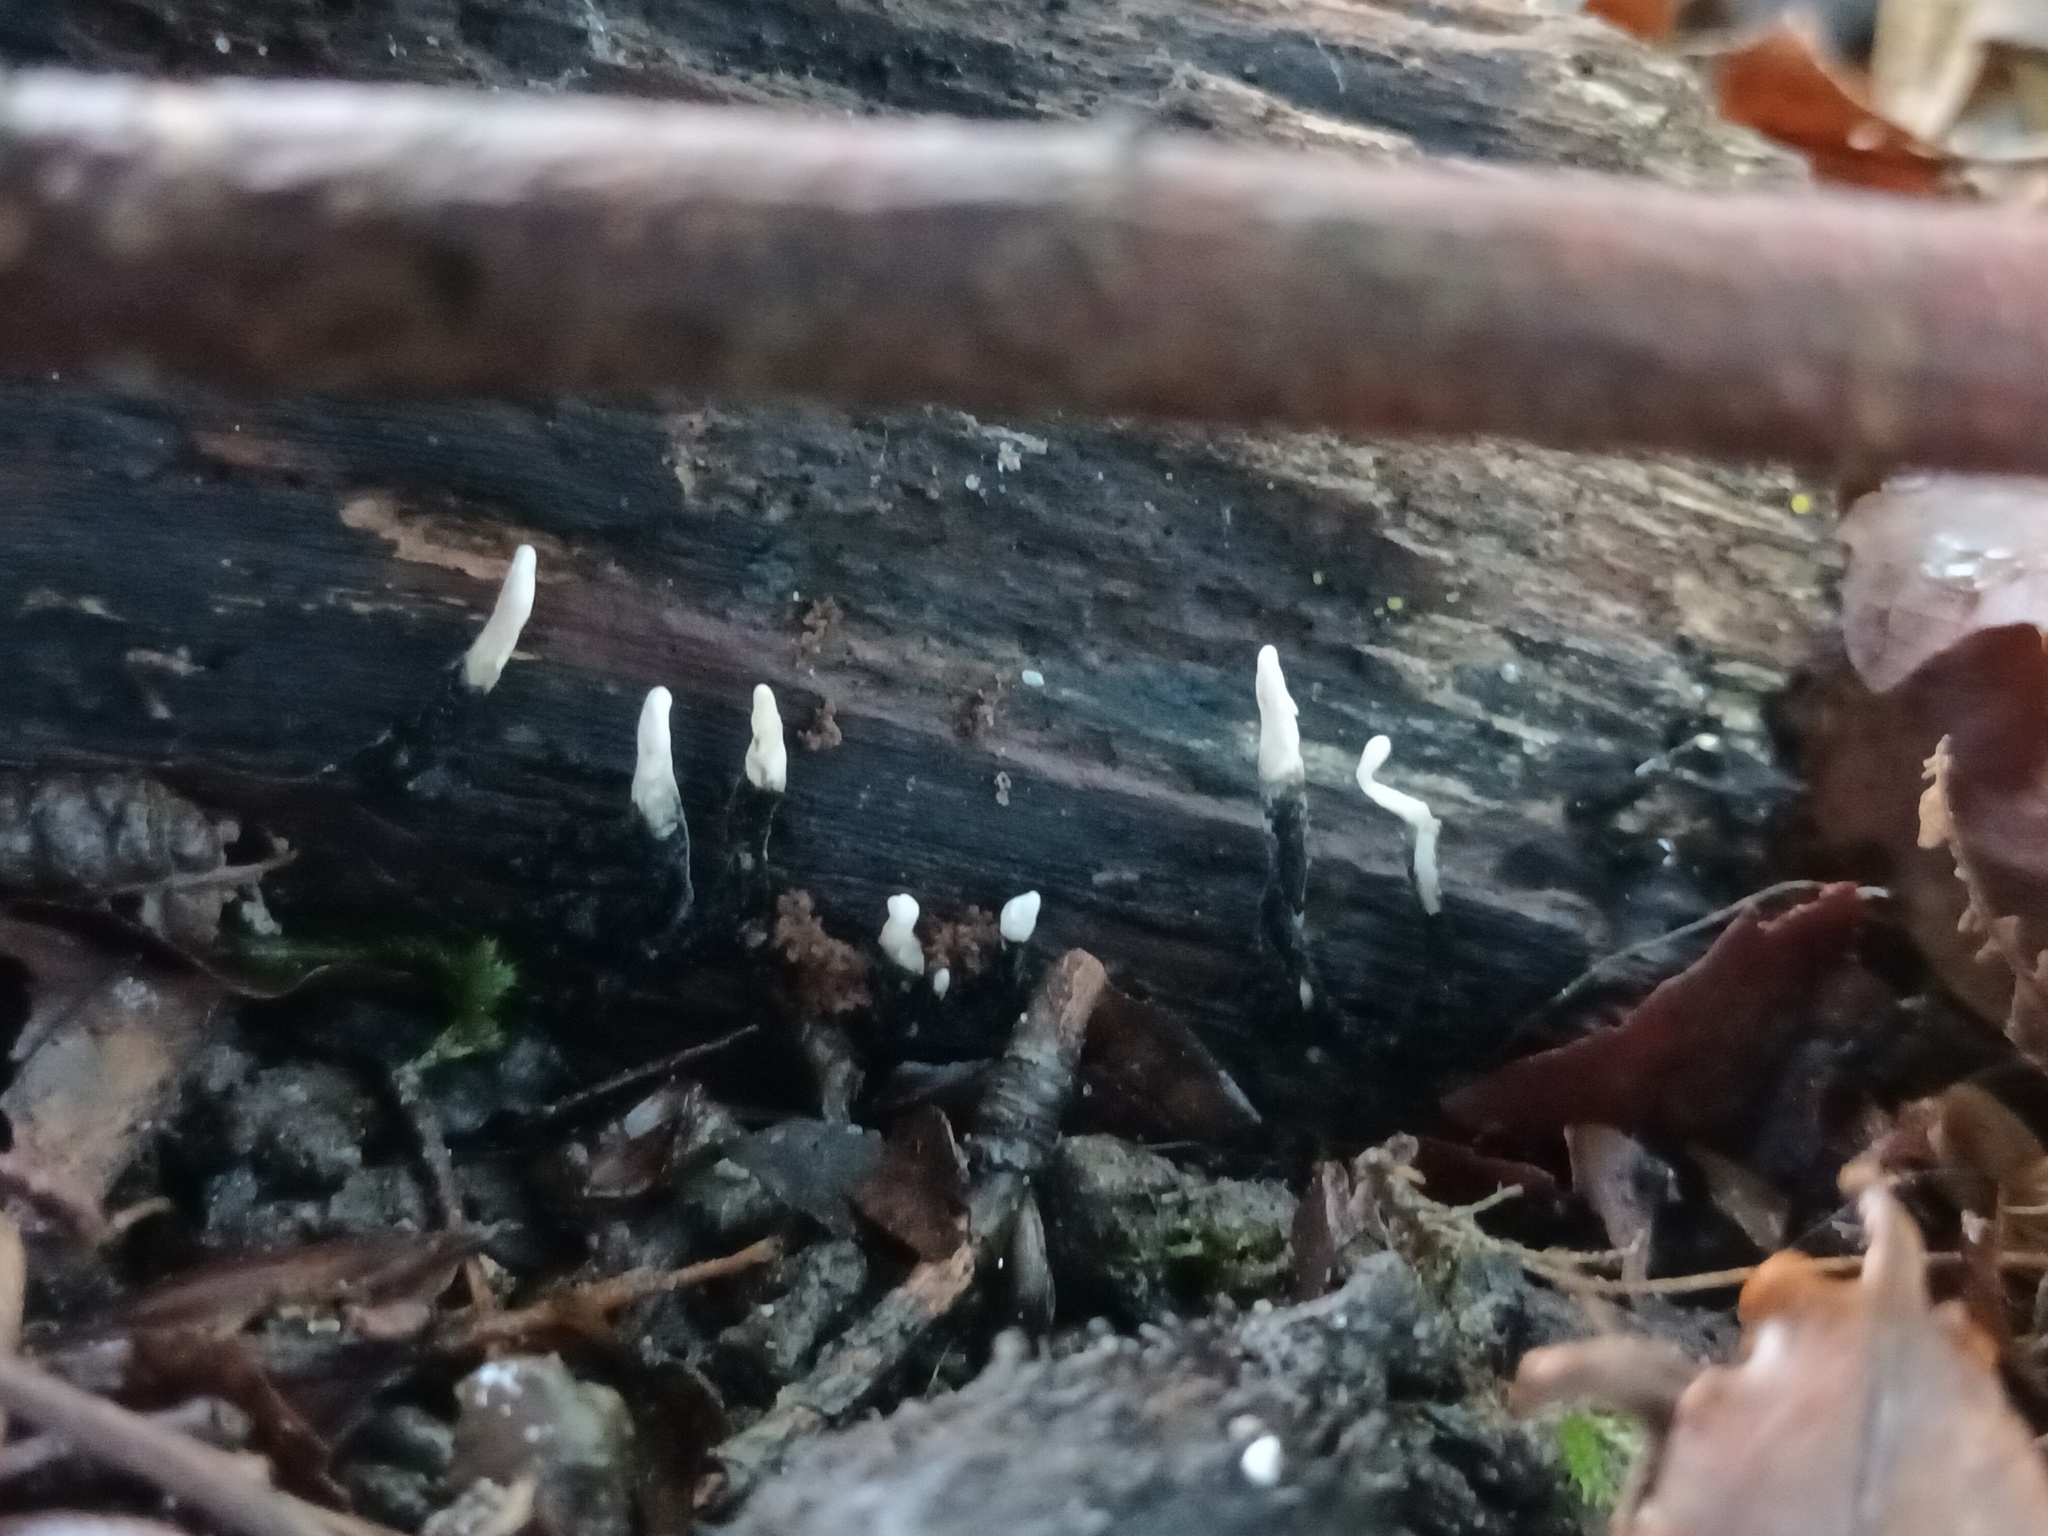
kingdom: Fungi
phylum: Ascomycota
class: Sordariomycetes
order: Xylariales
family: Xylariaceae
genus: Xylaria
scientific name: Xylaria hypoxylon
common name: Candle-snuff fungus
